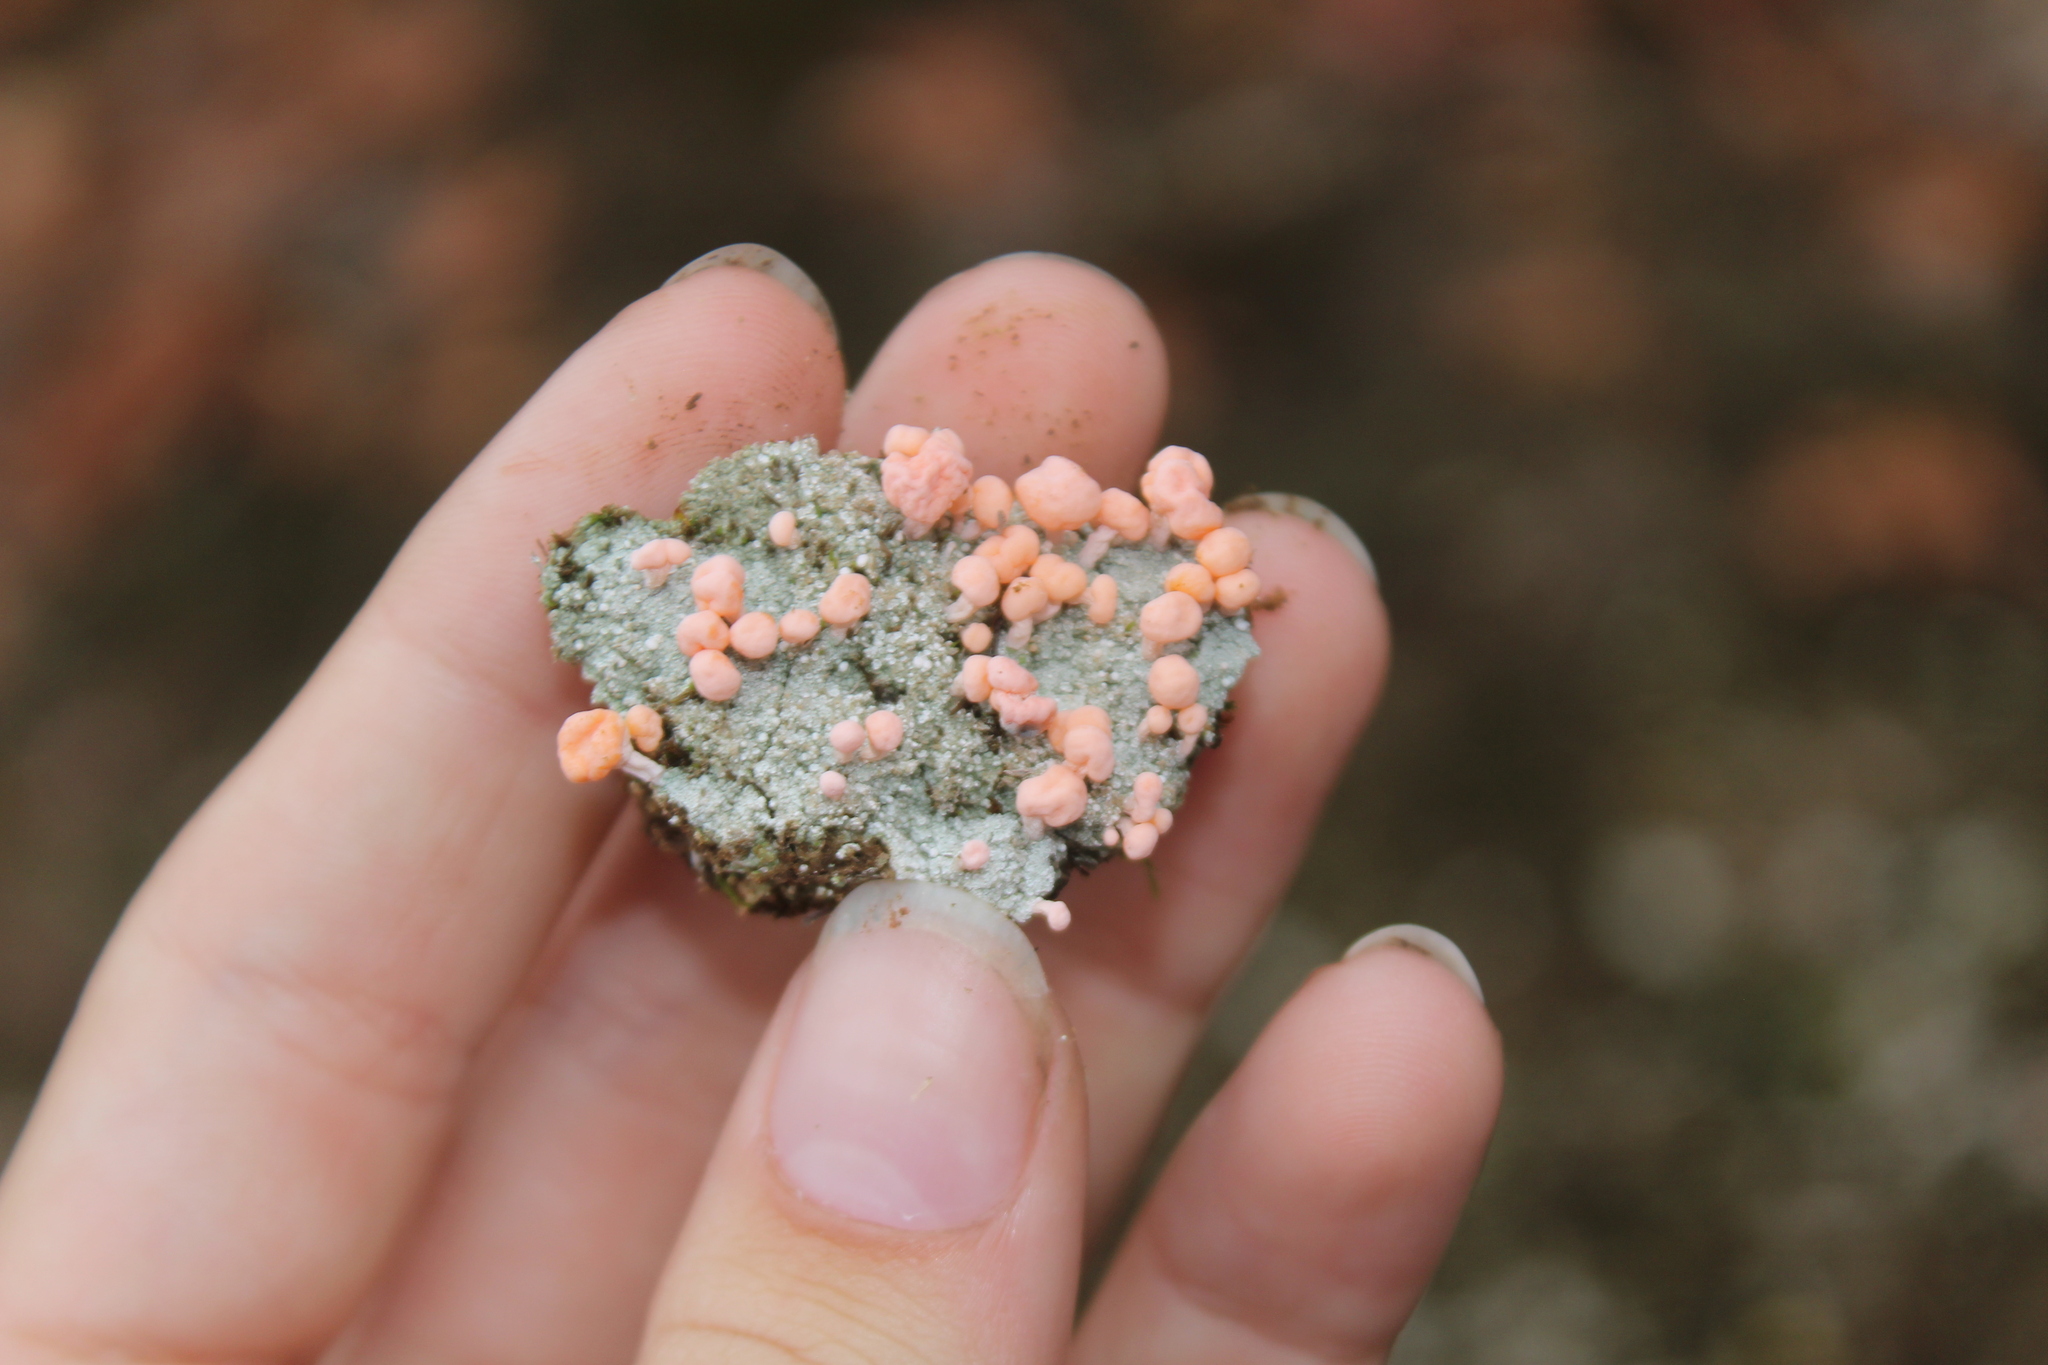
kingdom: Fungi
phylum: Ascomycota
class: Lecanoromycetes
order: Pertusariales
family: Icmadophilaceae
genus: Dibaeis
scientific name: Dibaeis baeomyces
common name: Pink earth lichen
